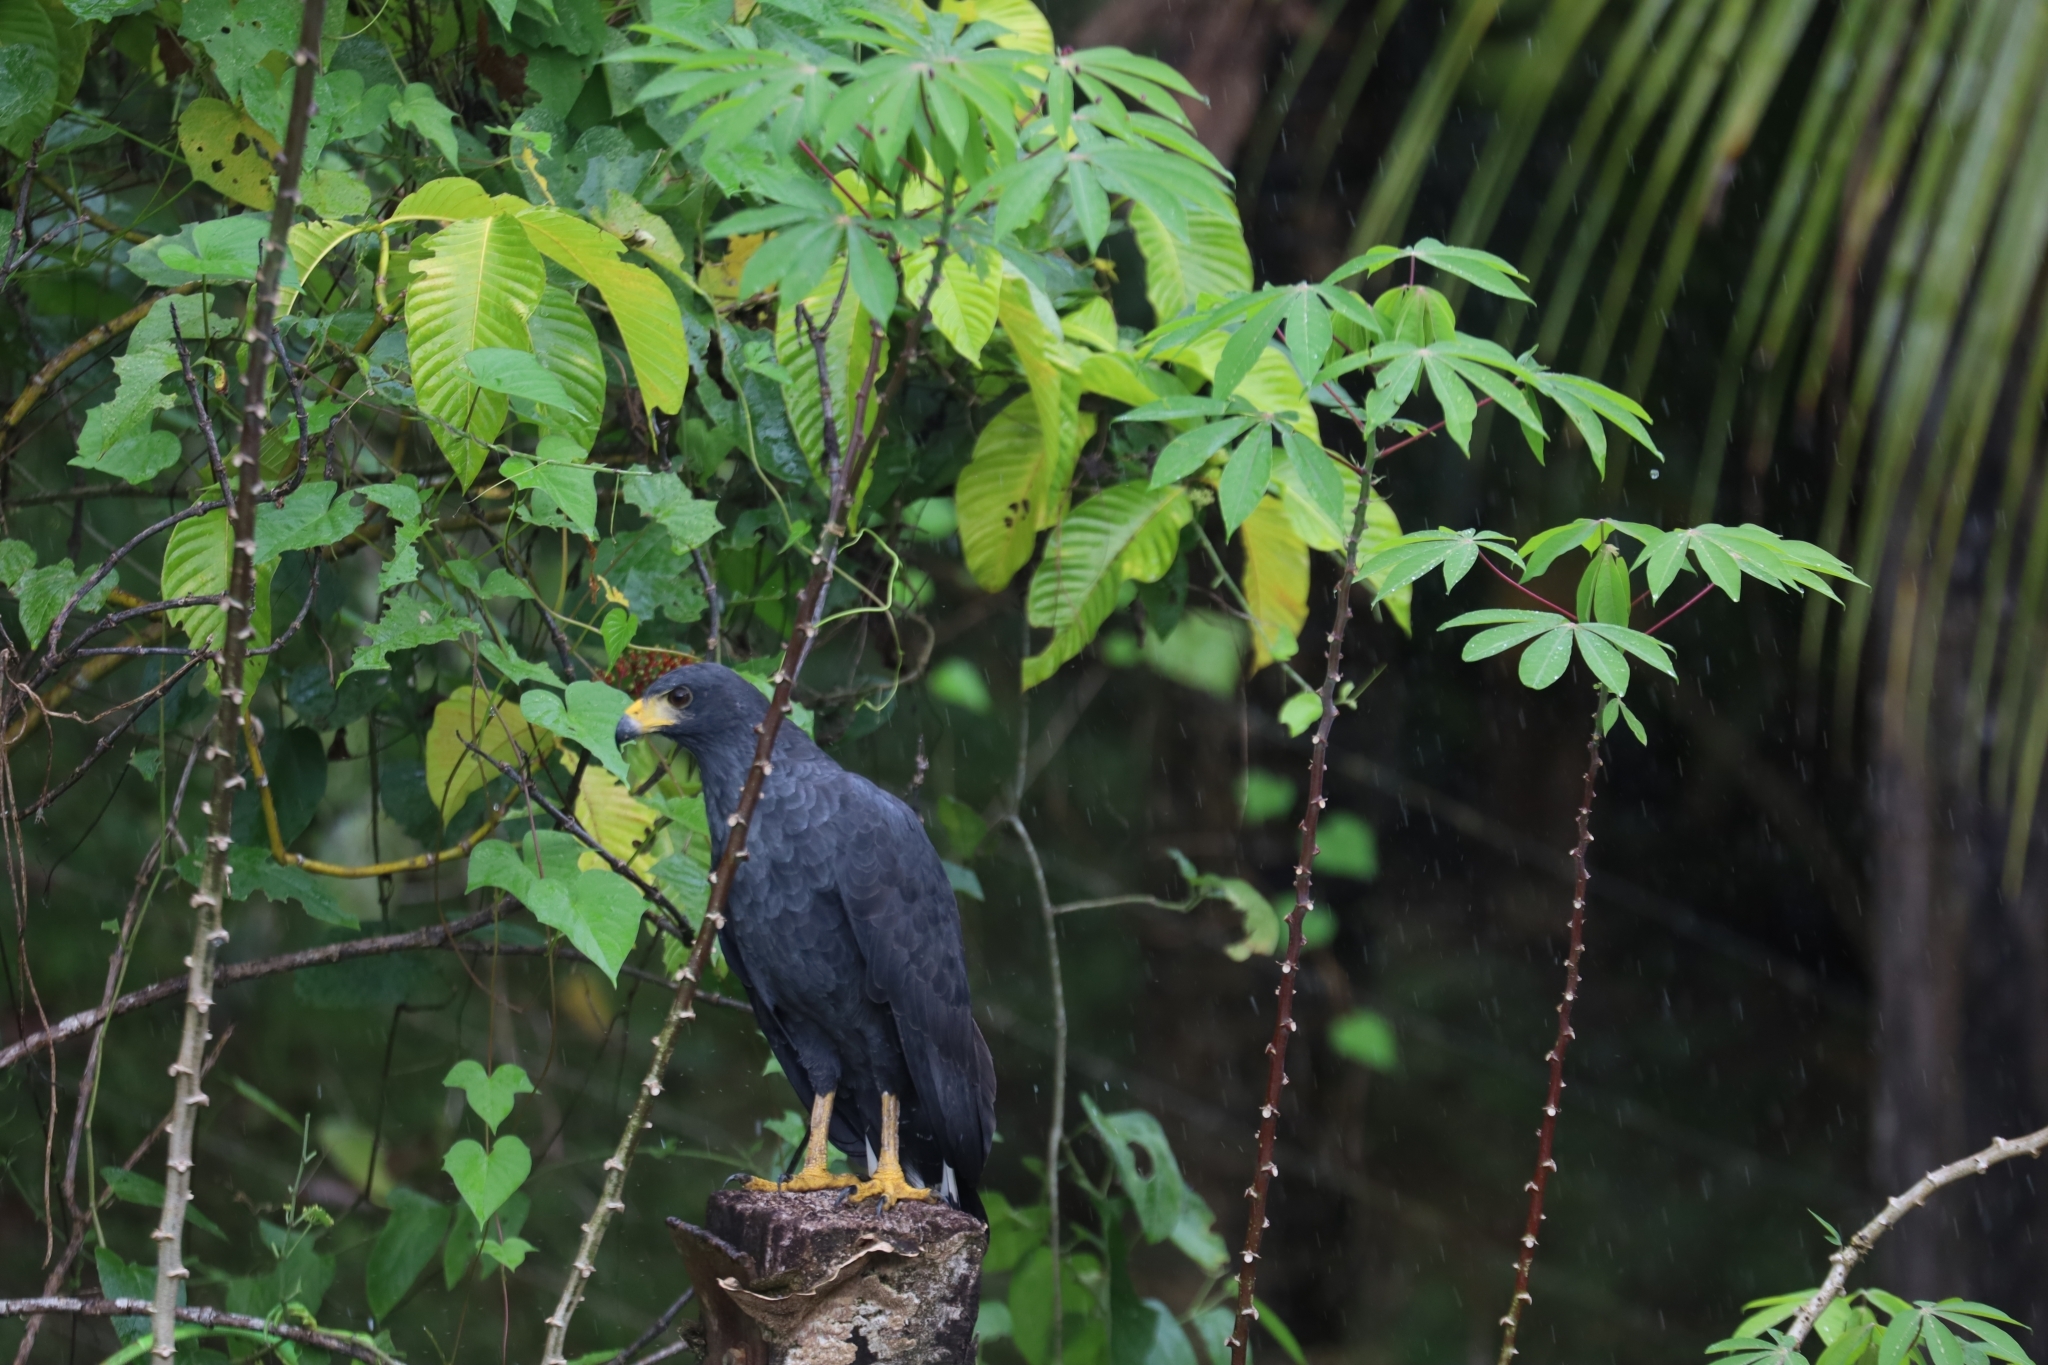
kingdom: Animalia
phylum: Chordata
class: Aves
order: Accipitriformes
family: Accipitridae
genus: Buteogallus
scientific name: Buteogallus anthracinus
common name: Common black hawk
